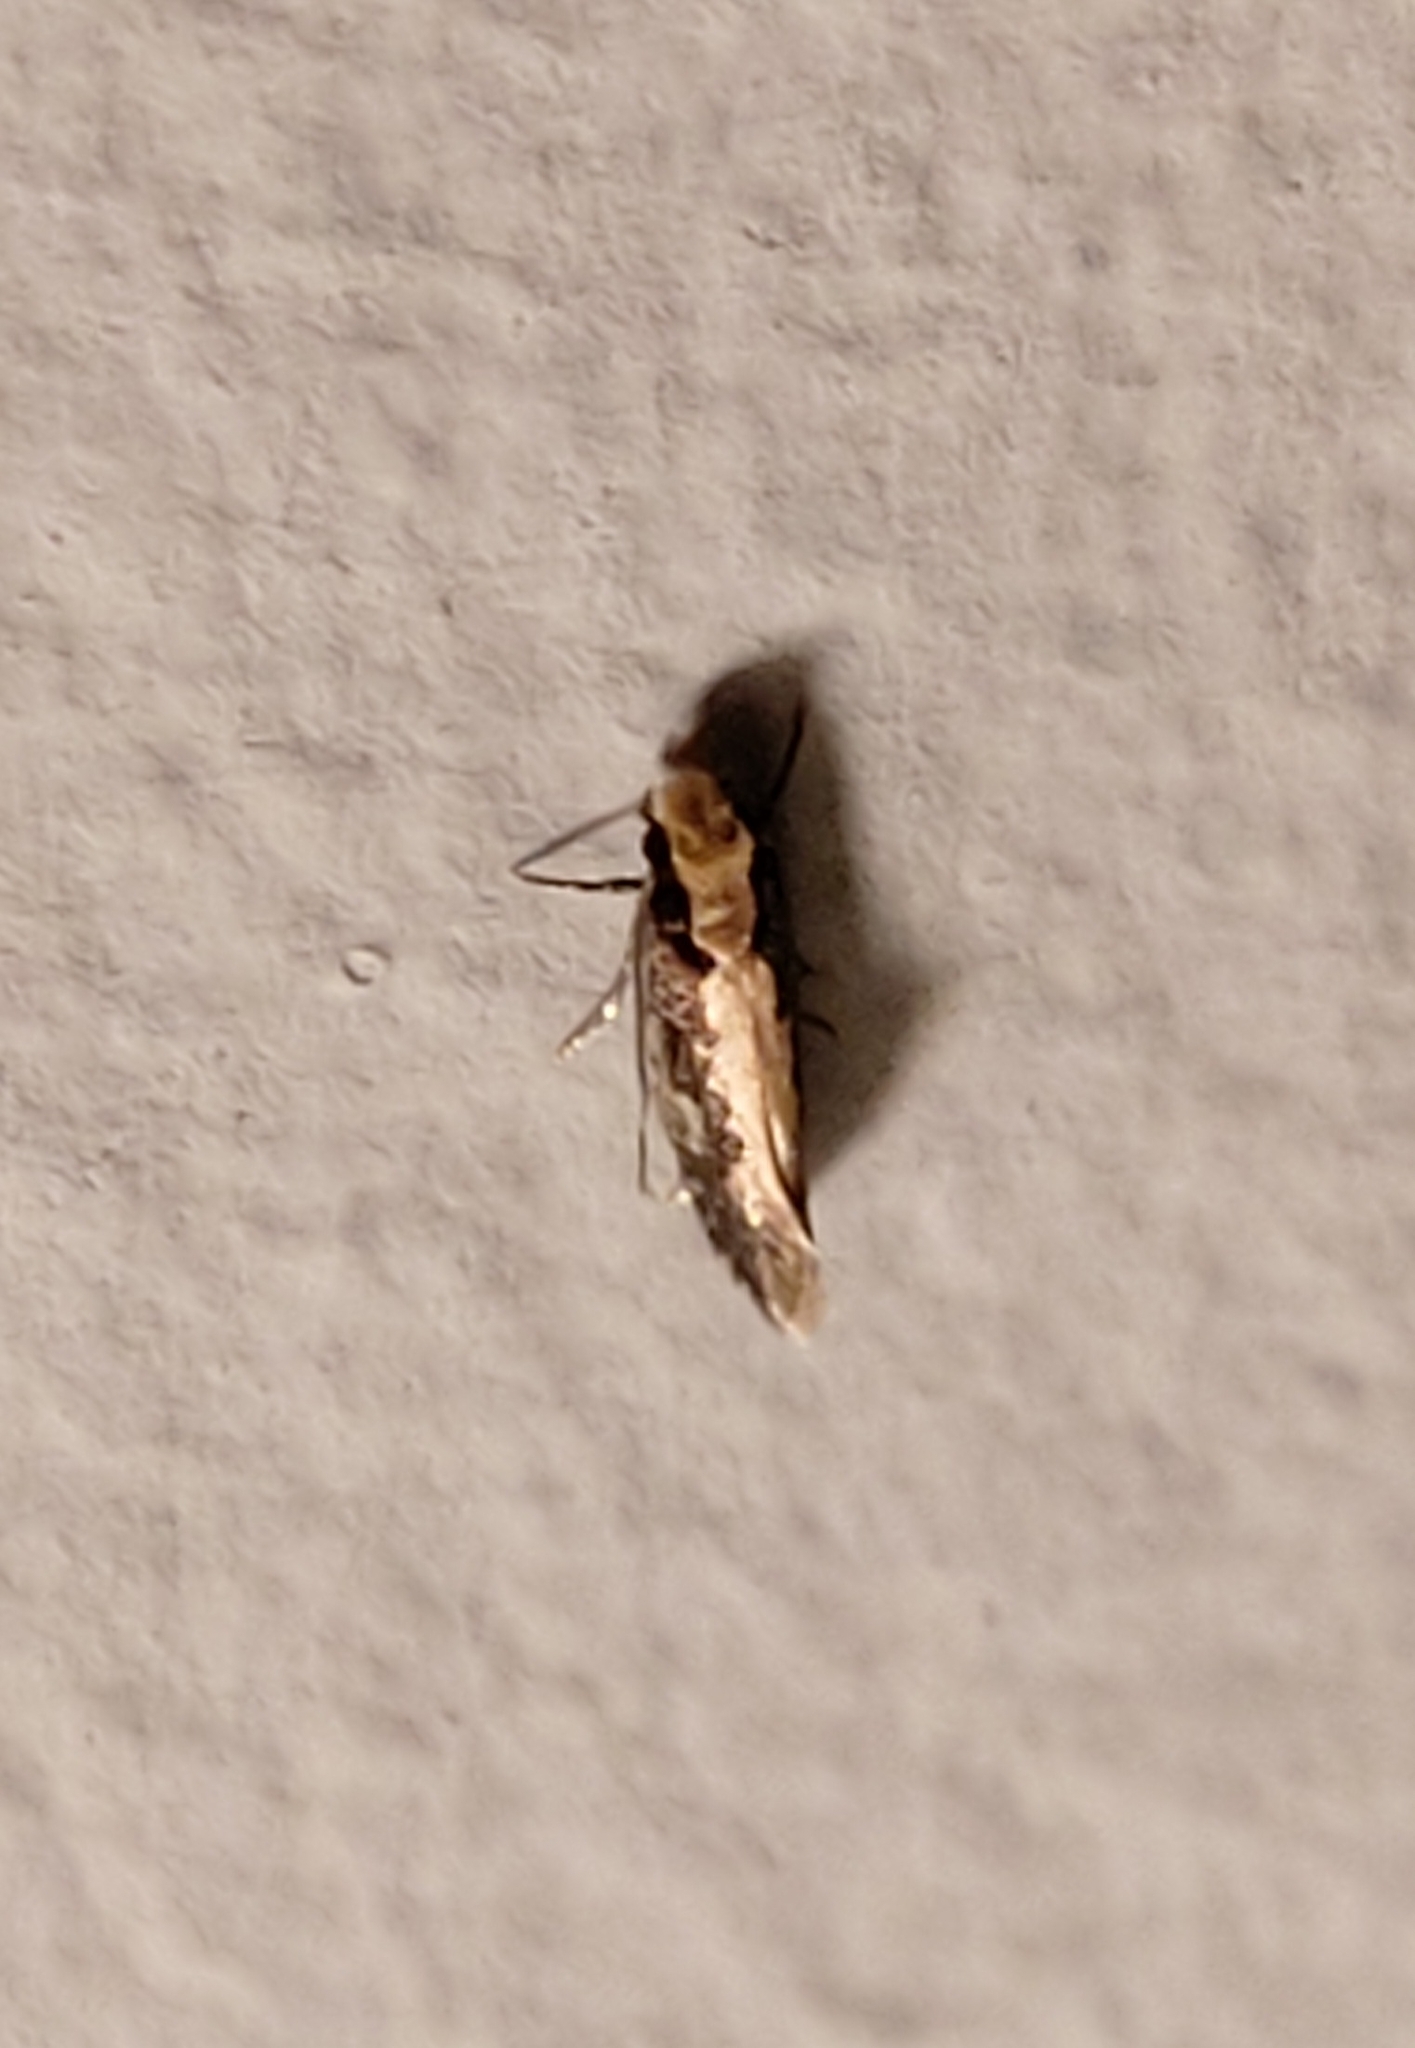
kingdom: Animalia
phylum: Arthropoda
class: Insecta
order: Lepidoptera
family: Tineidae
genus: Monopis
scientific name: Monopis crocicapitella
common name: Moth
